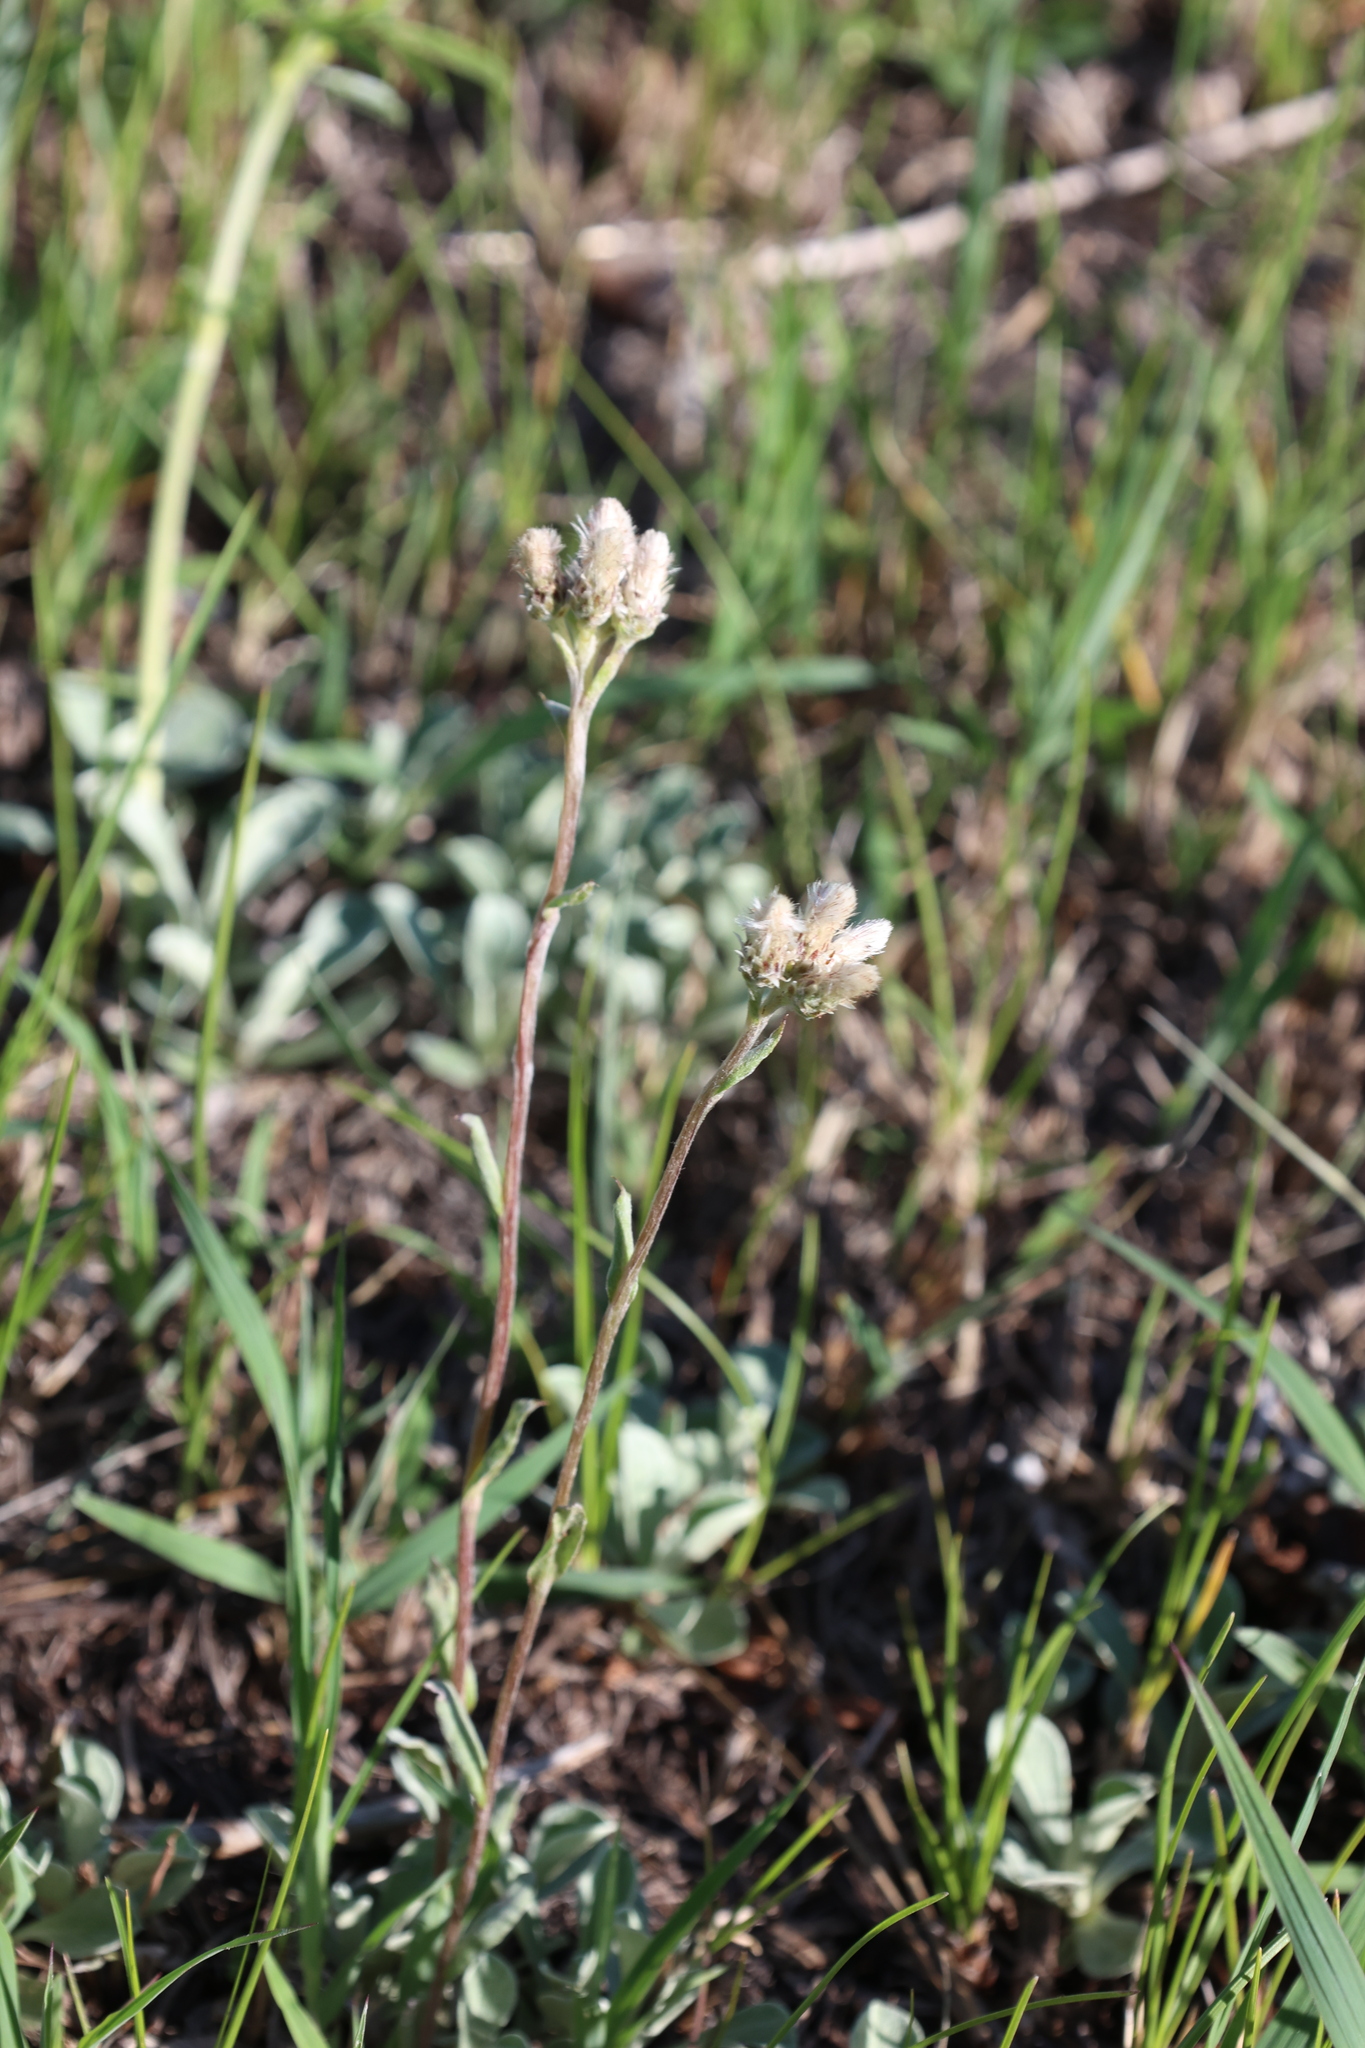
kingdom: Plantae
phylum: Tracheophyta
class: Magnoliopsida
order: Asterales
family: Asteraceae
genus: Antennaria
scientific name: Antennaria howellii
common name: Howell's pussytoes
